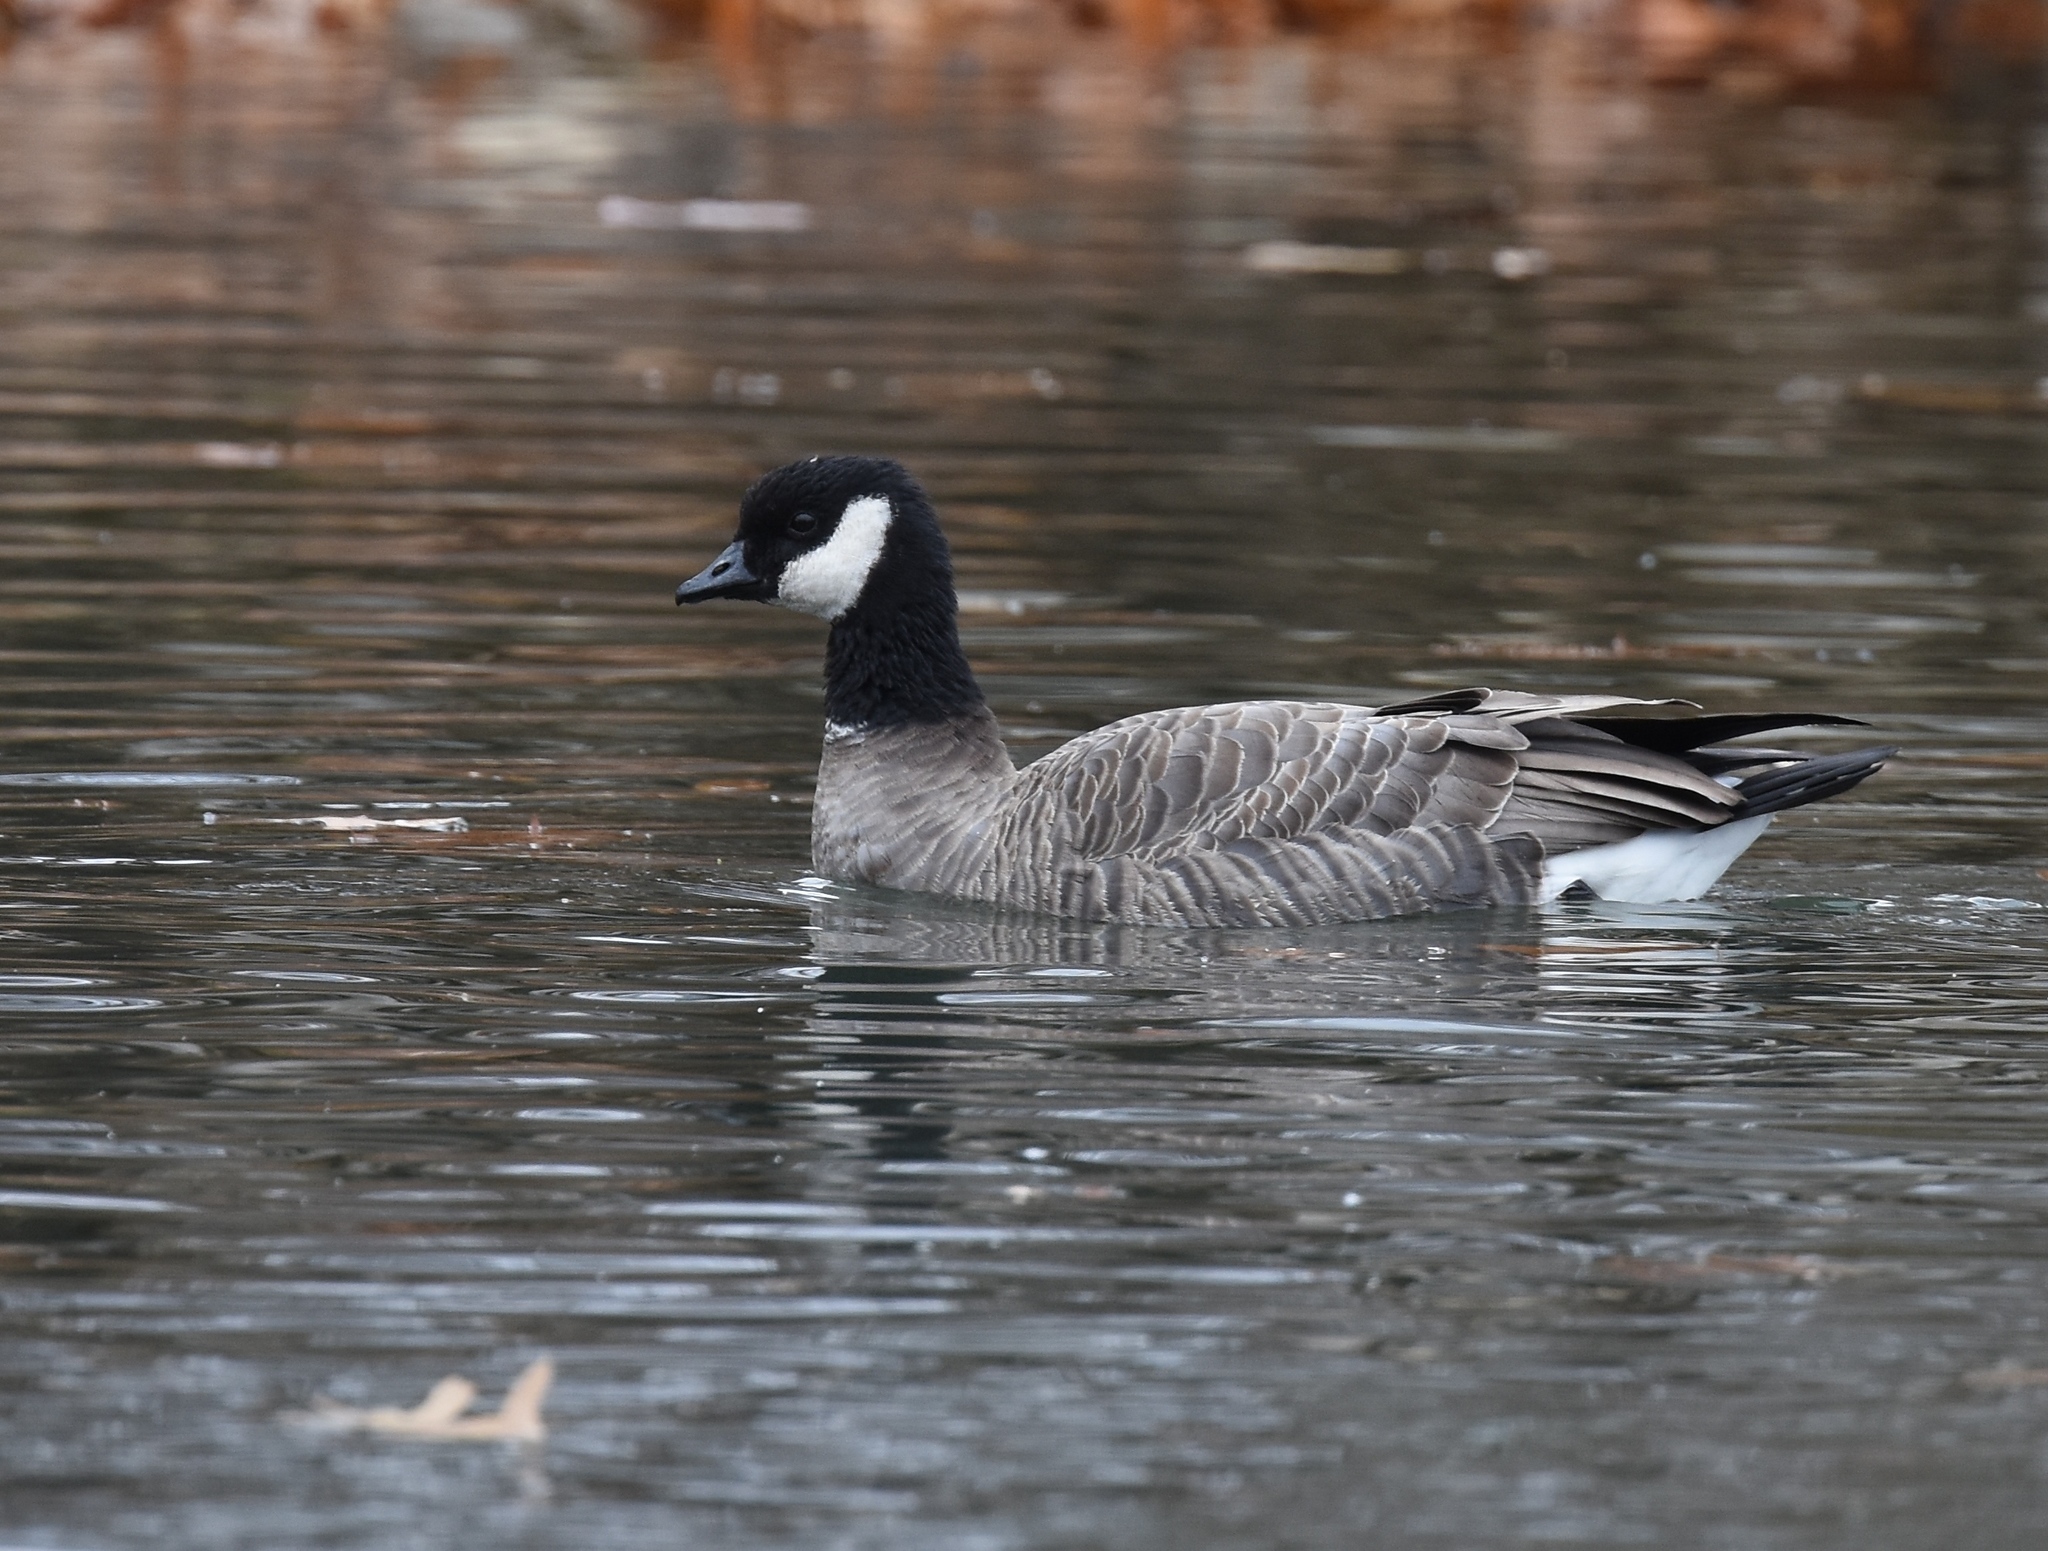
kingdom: Animalia
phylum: Chordata
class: Aves
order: Anseriformes
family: Anatidae
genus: Branta
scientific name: Branta hutchinsii
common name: Cackling goose
